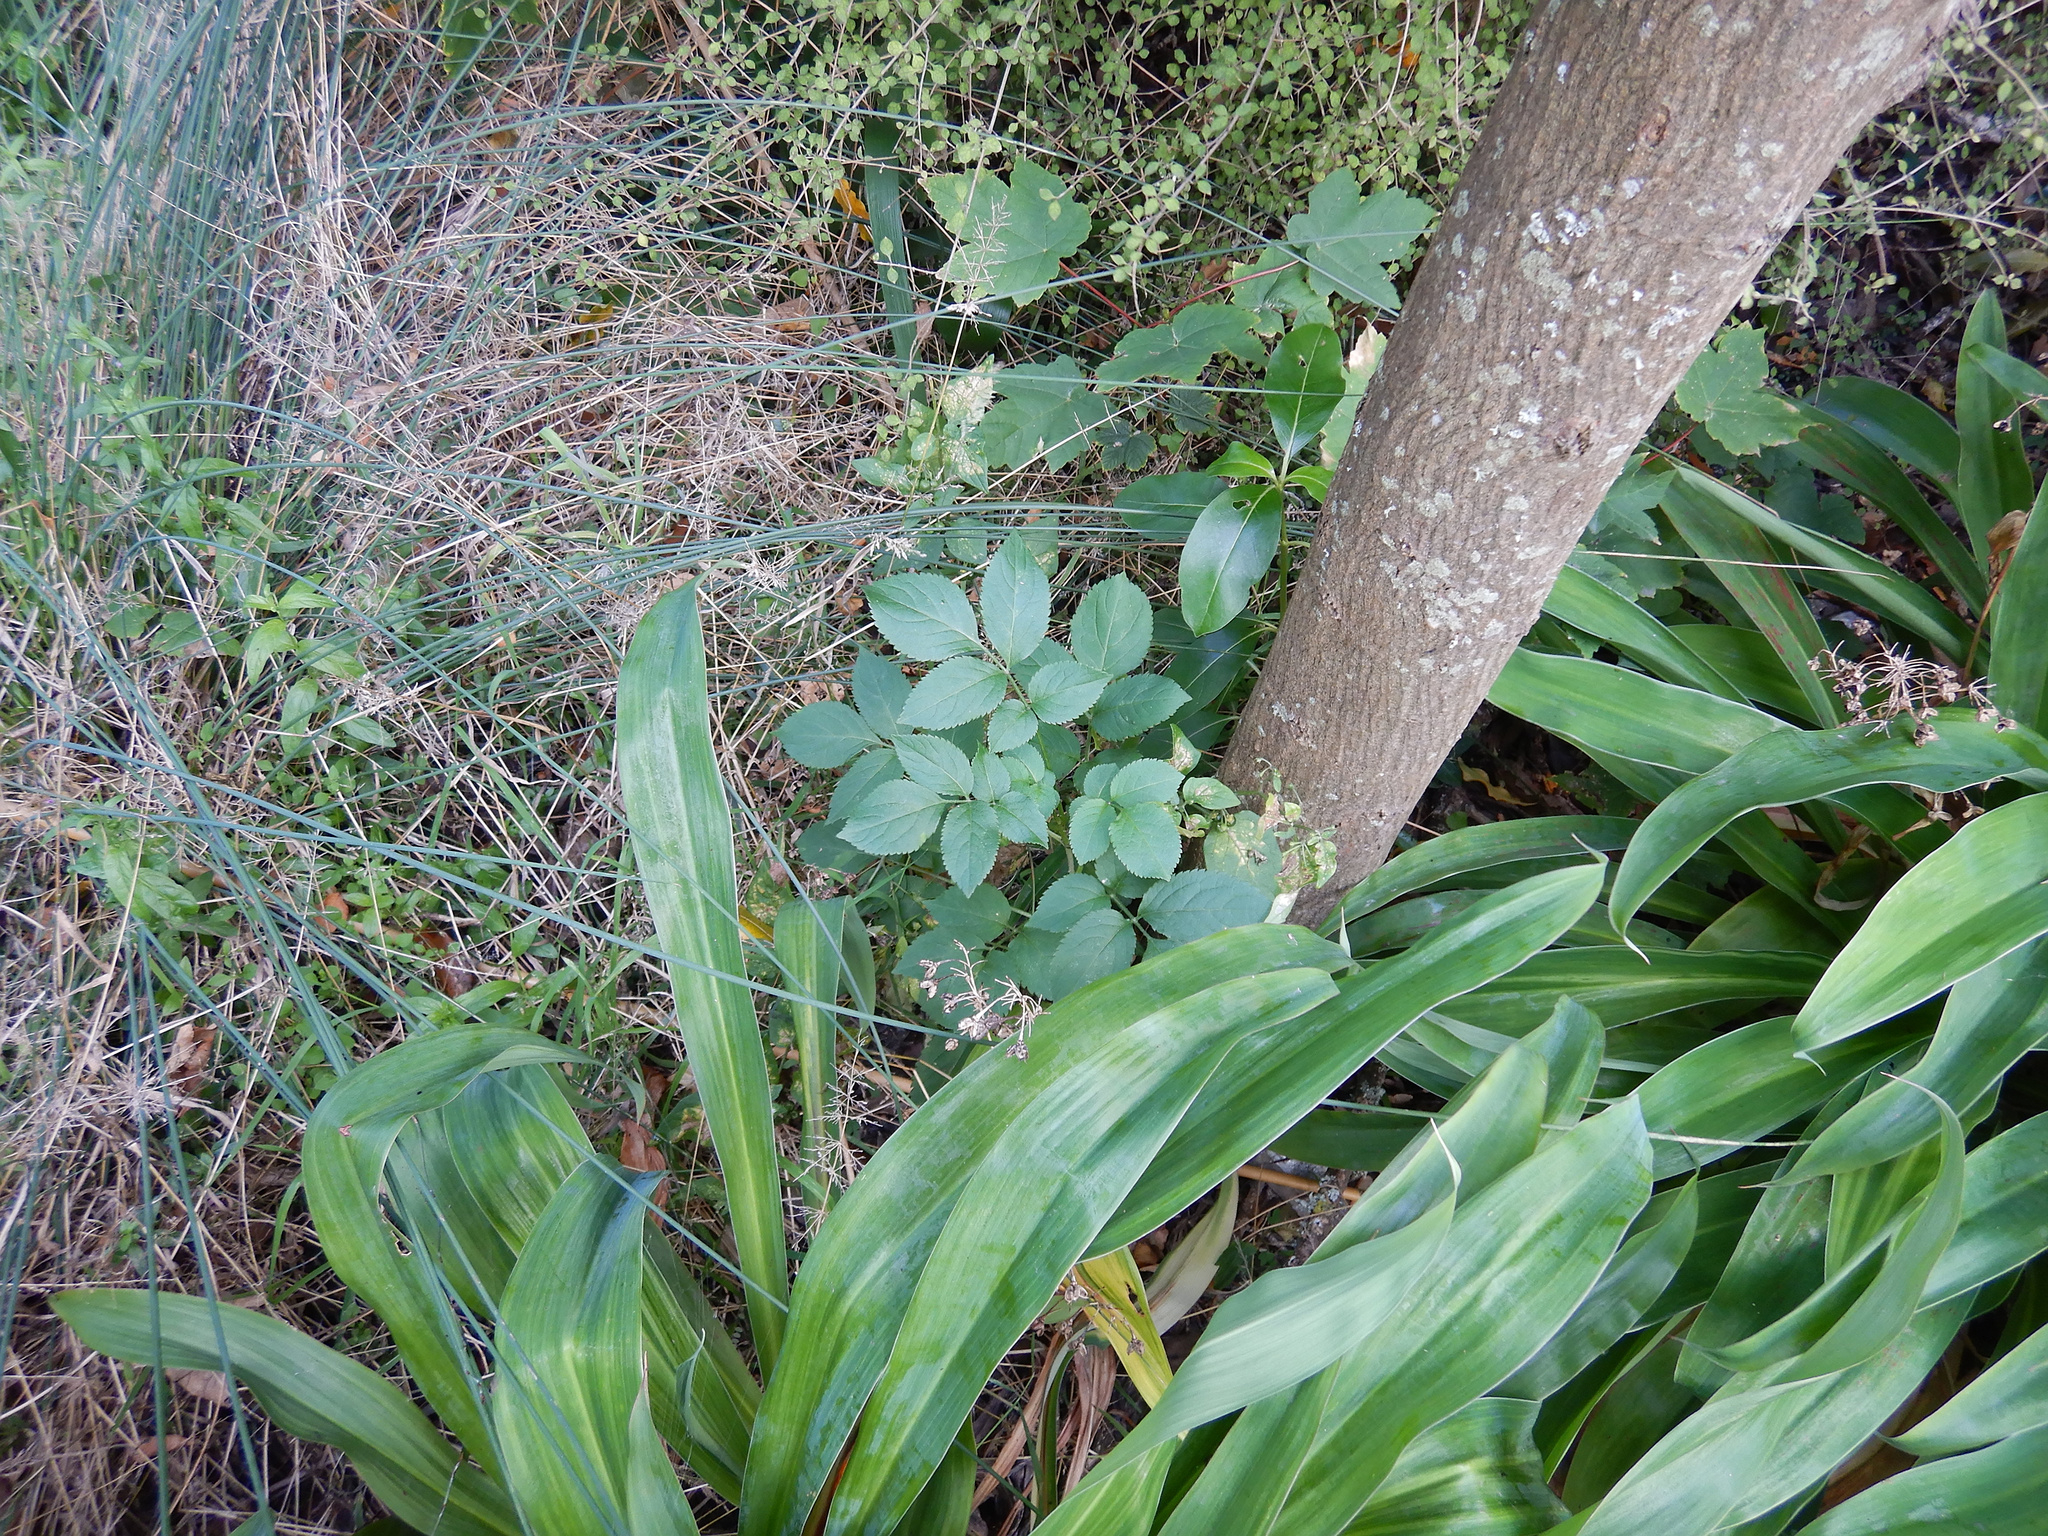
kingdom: Plantae
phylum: Tracheophyta
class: Magnoliopsida
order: Dipsacales
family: Viburnaceae
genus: Sambucus
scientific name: Sambucus nigra
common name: Elder
